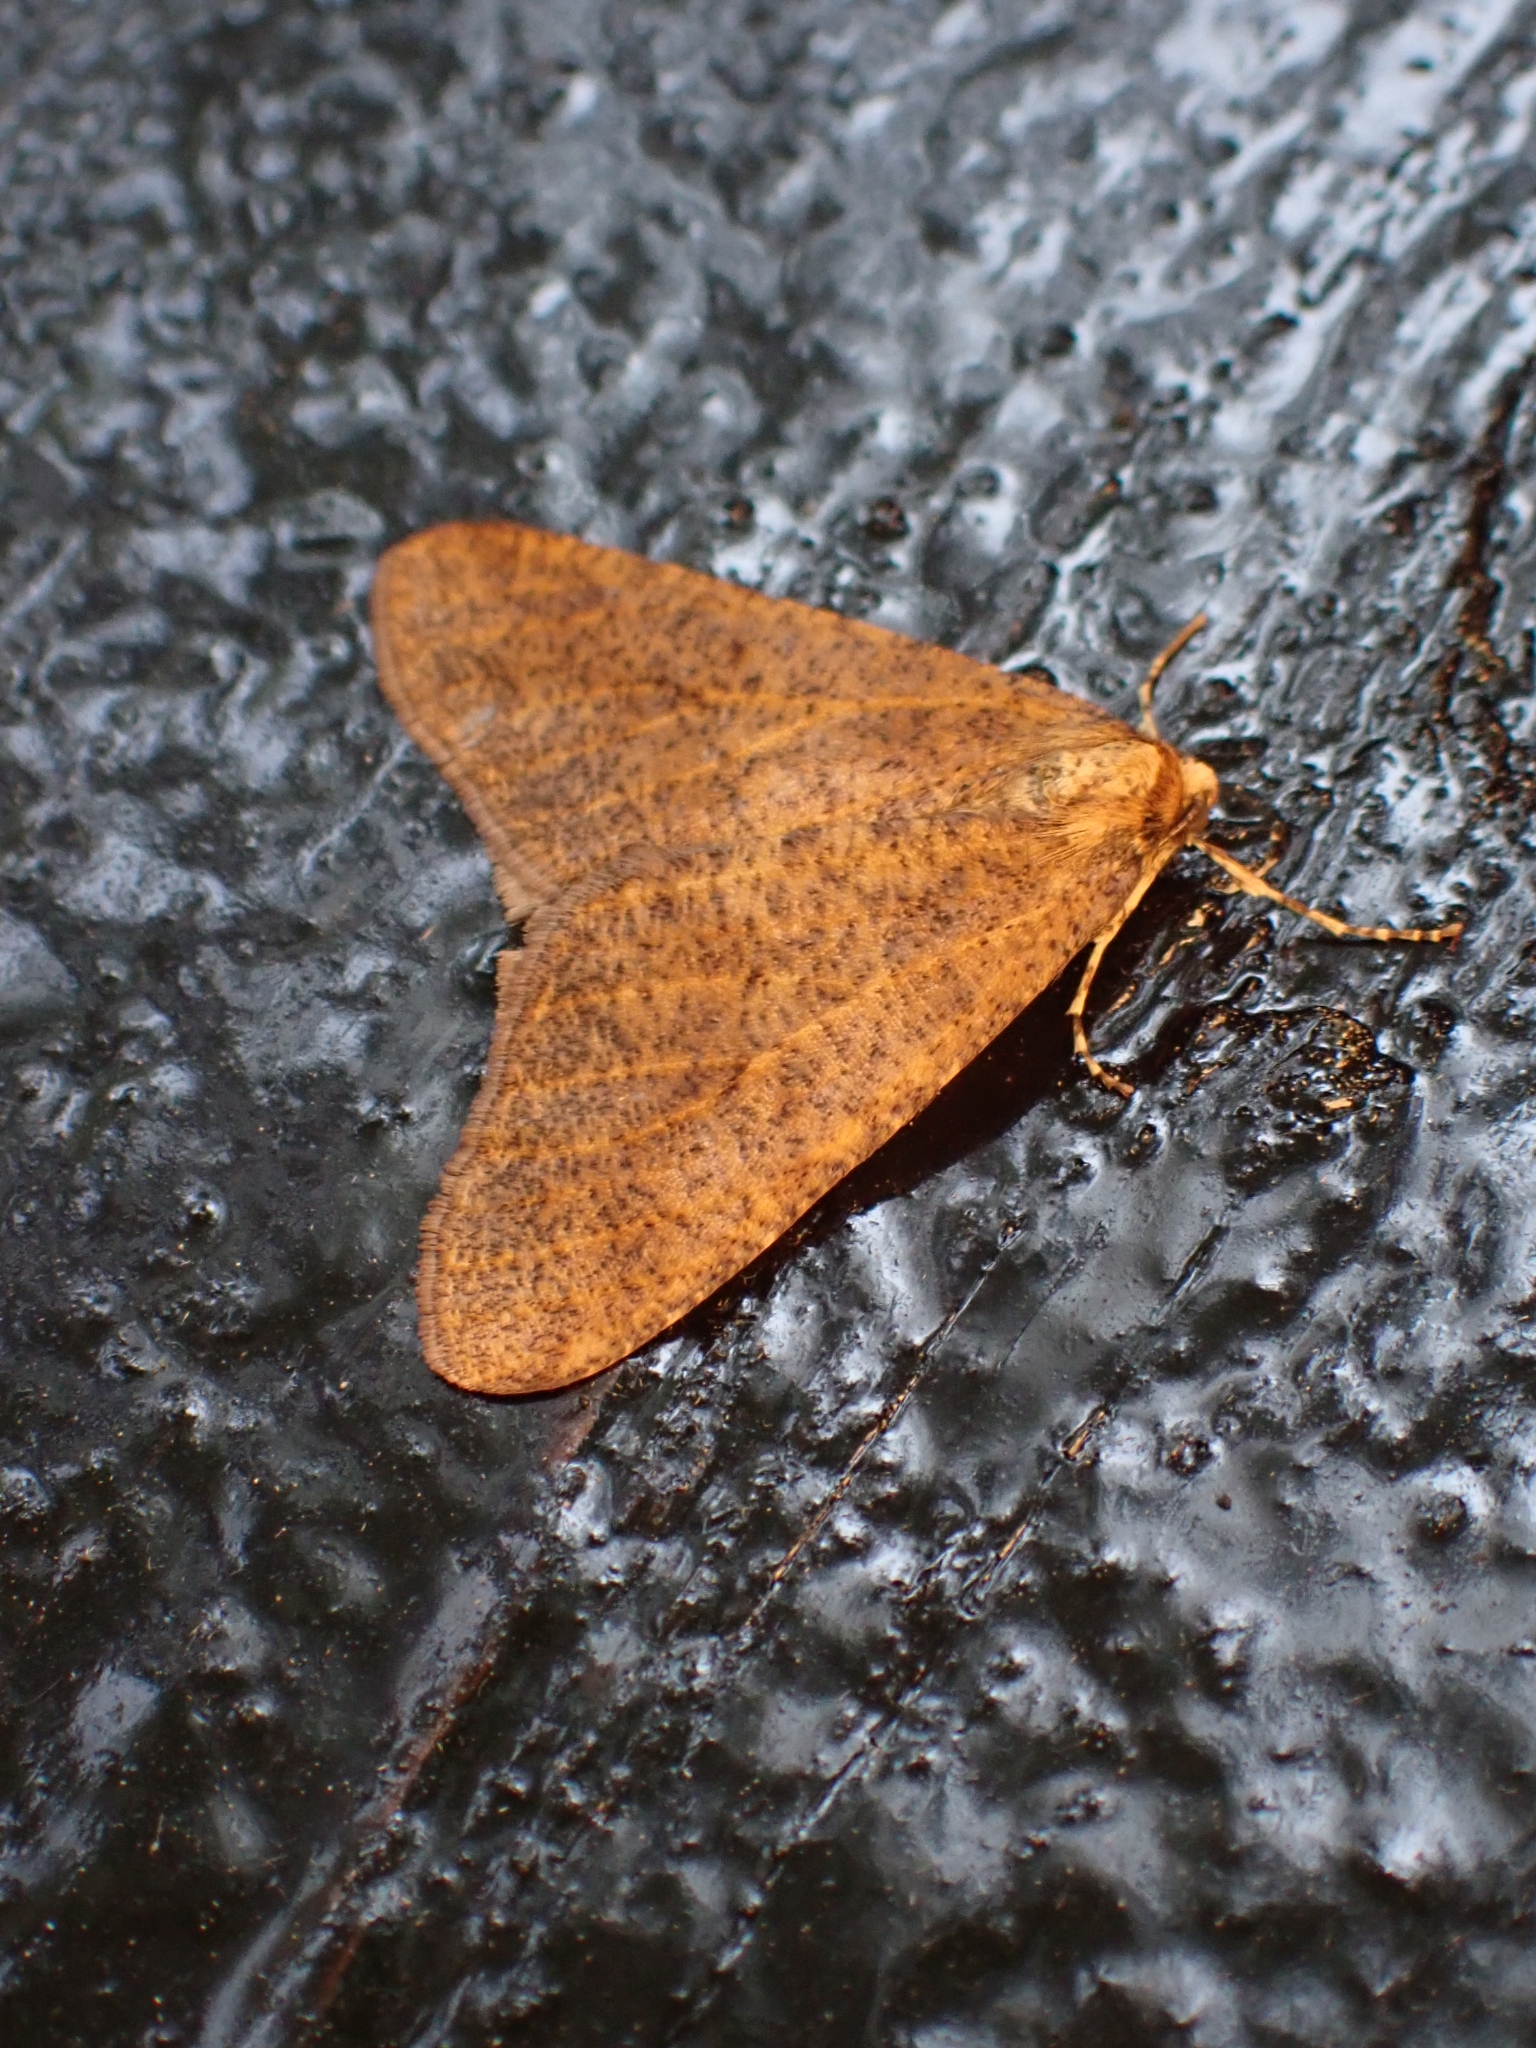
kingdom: Animalia
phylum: Arthropoda
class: Insecta
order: Lepidoptera
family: Geometridae
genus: Erannis
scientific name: Erannis defoliaria
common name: Mottled umber
